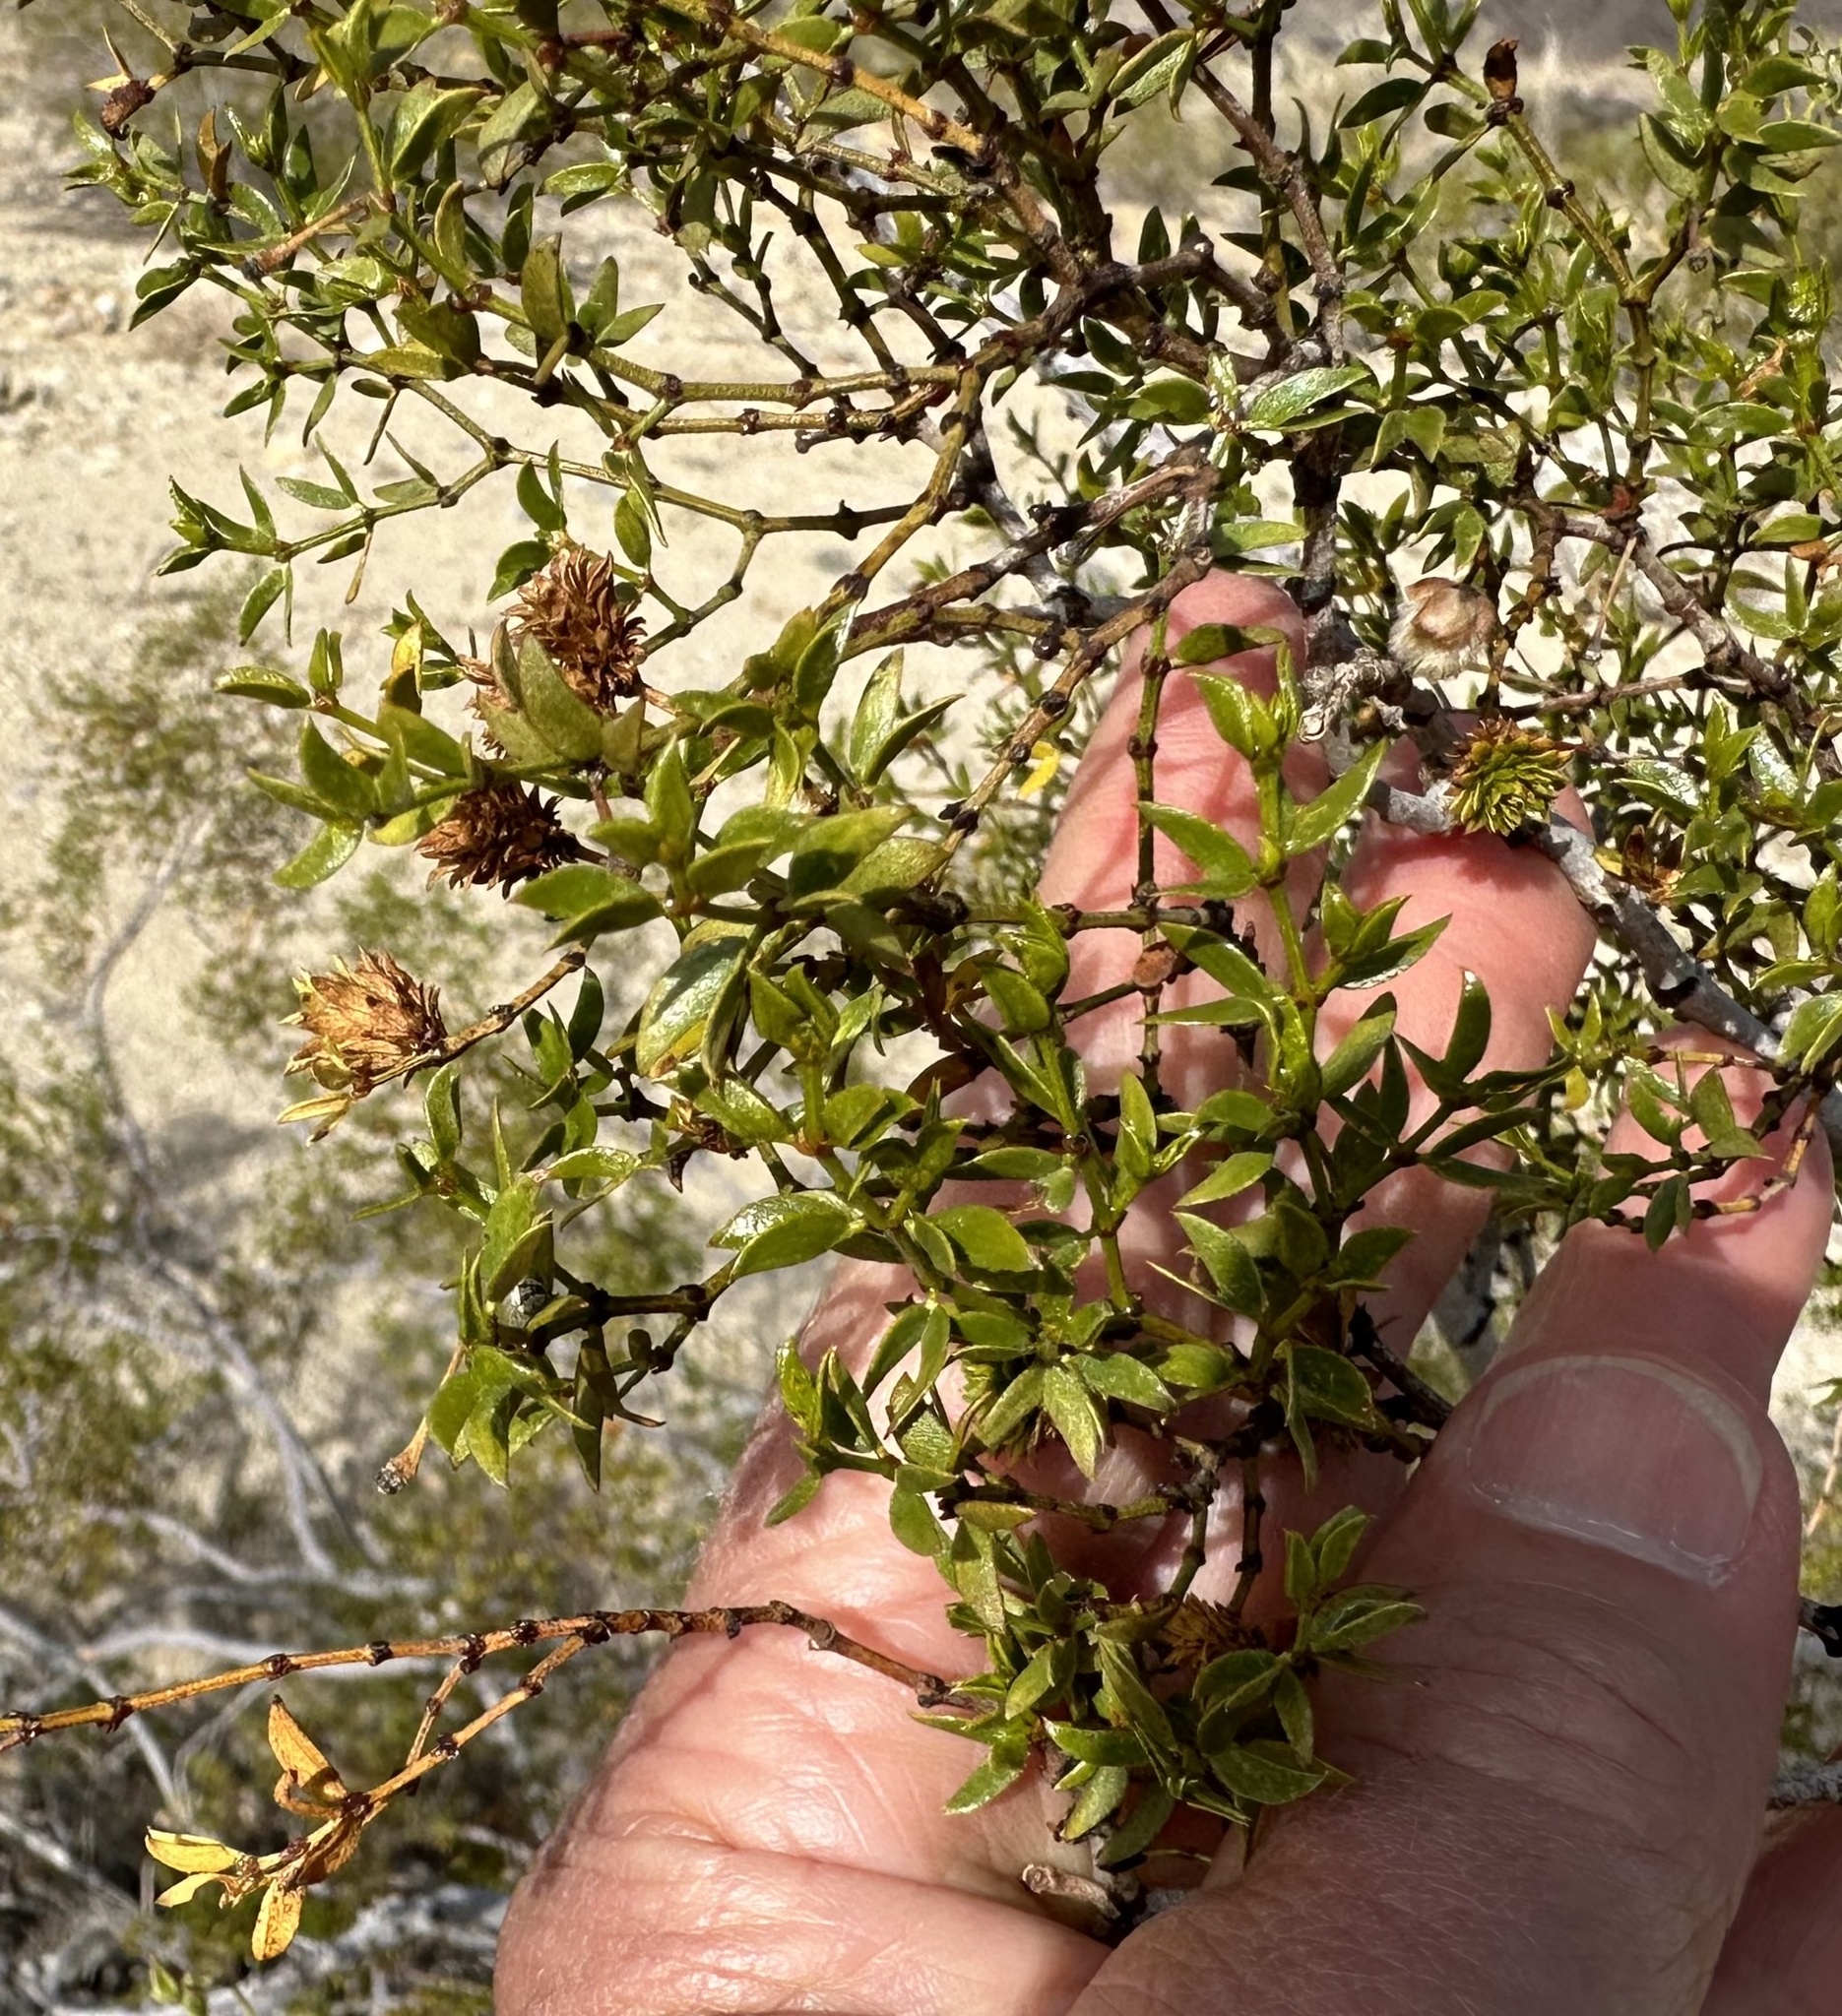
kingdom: Animalia
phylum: Arthropoda
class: Insecta
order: Diptera
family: Cecidomyiidae
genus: Asphondylia
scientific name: Asphondylia rosetta
